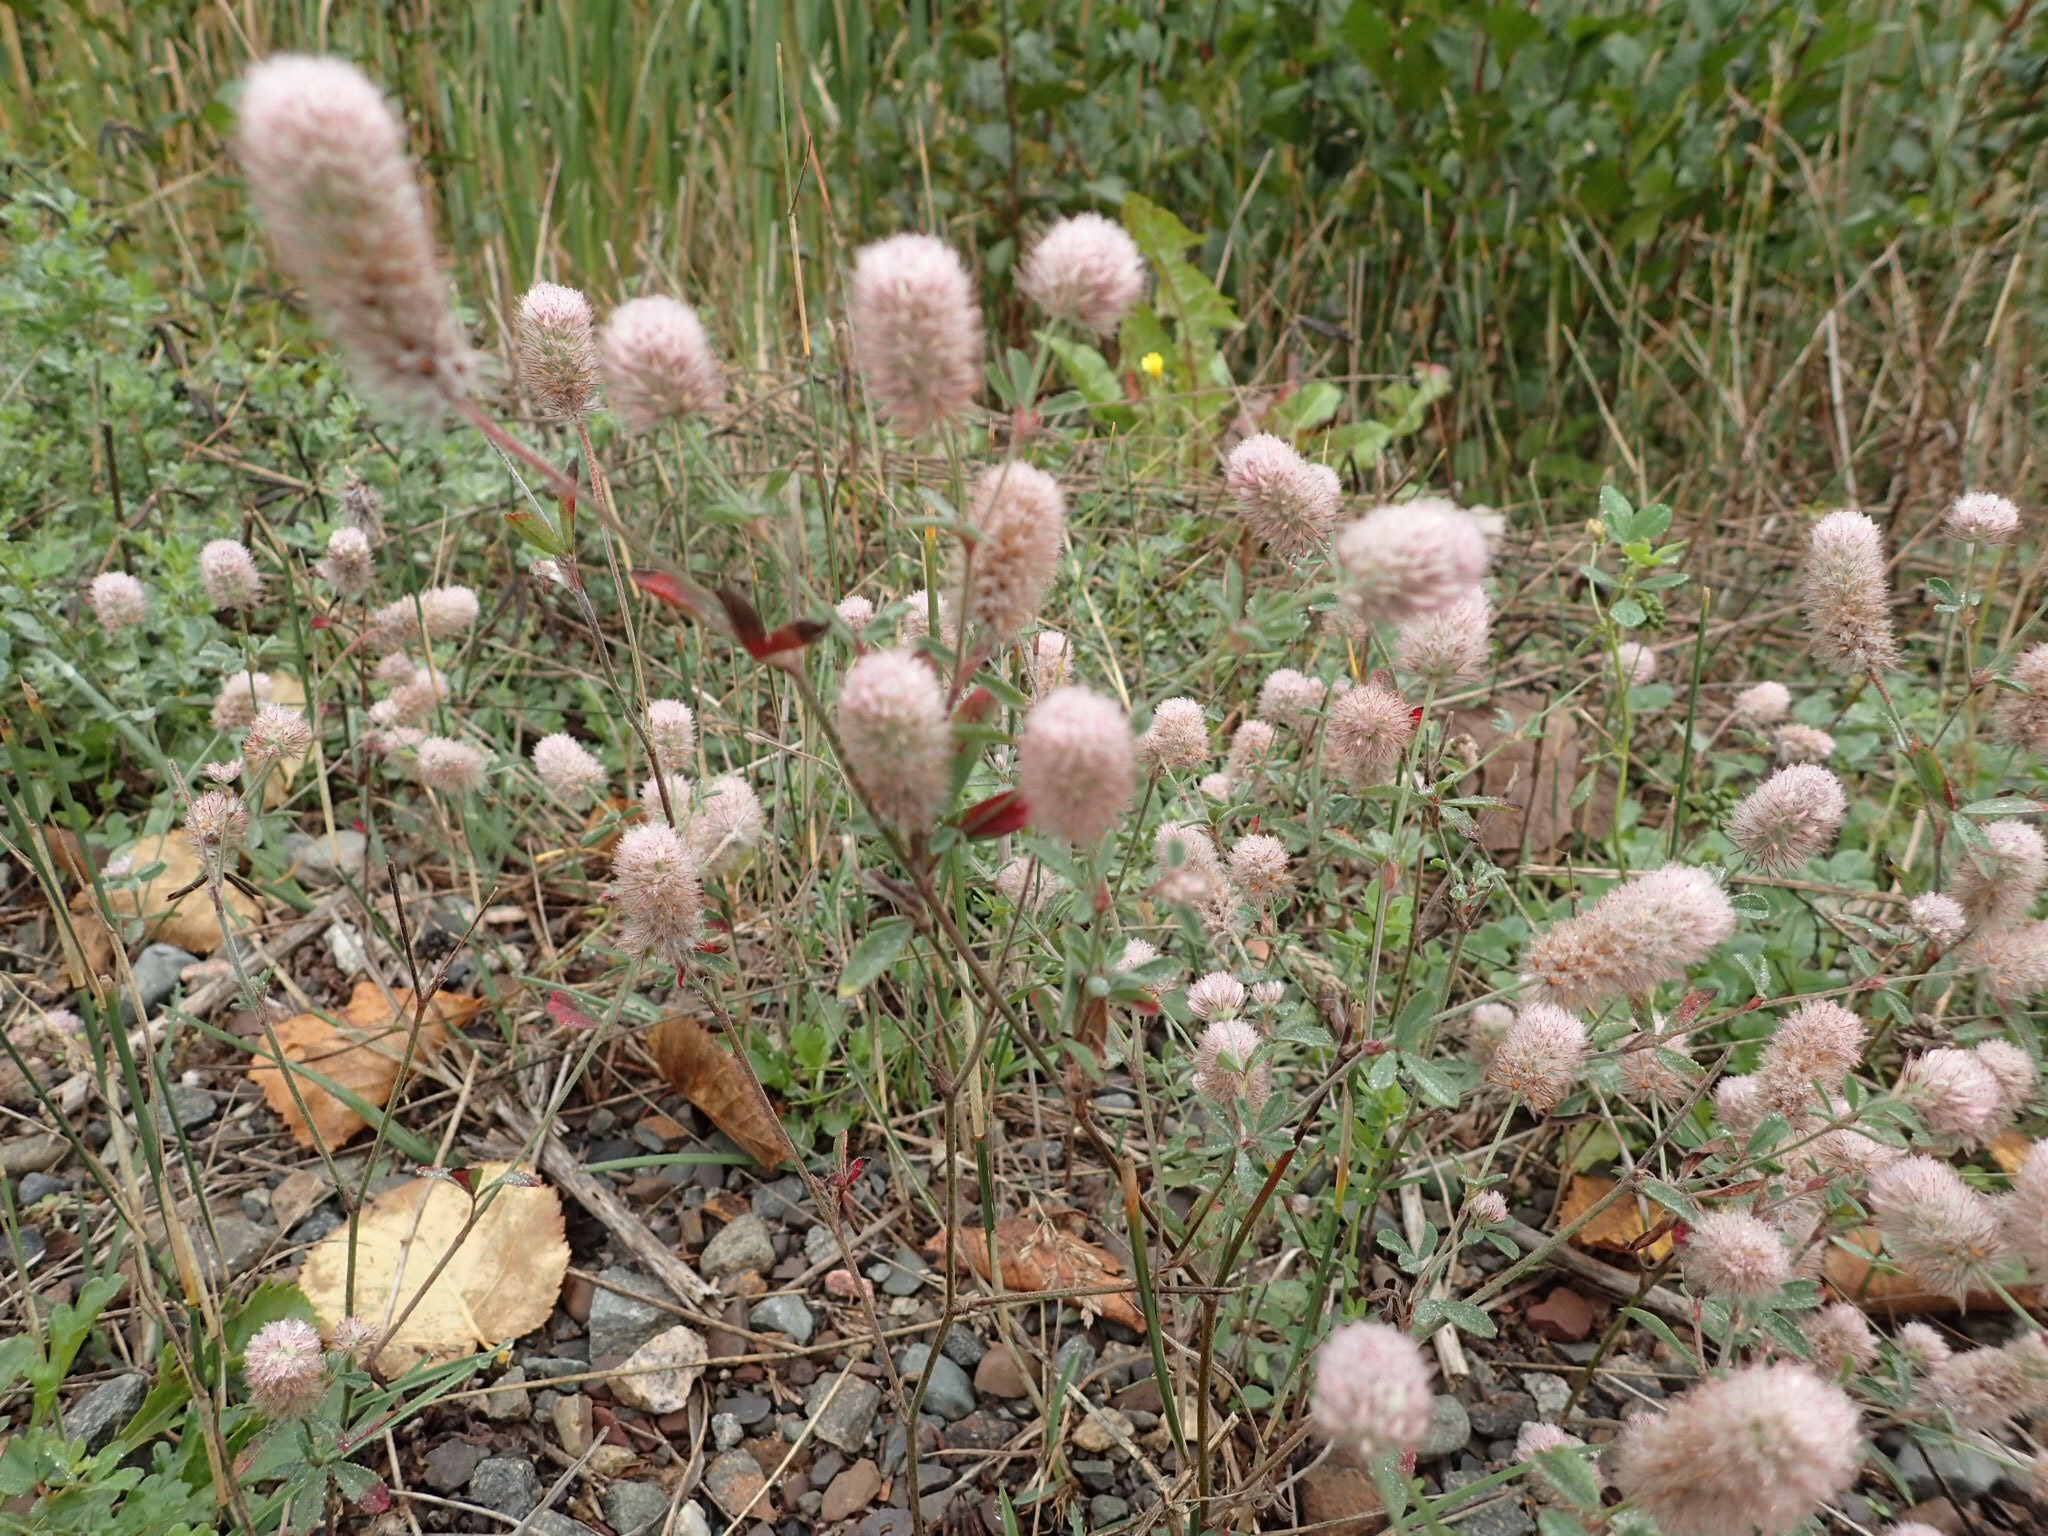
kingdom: Plantae
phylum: Tracheophyta
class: Magnoliopsida
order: Fabales
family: Fabaceae
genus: Trifolium
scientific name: Trifolium arvense
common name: Hare's-foot clover
